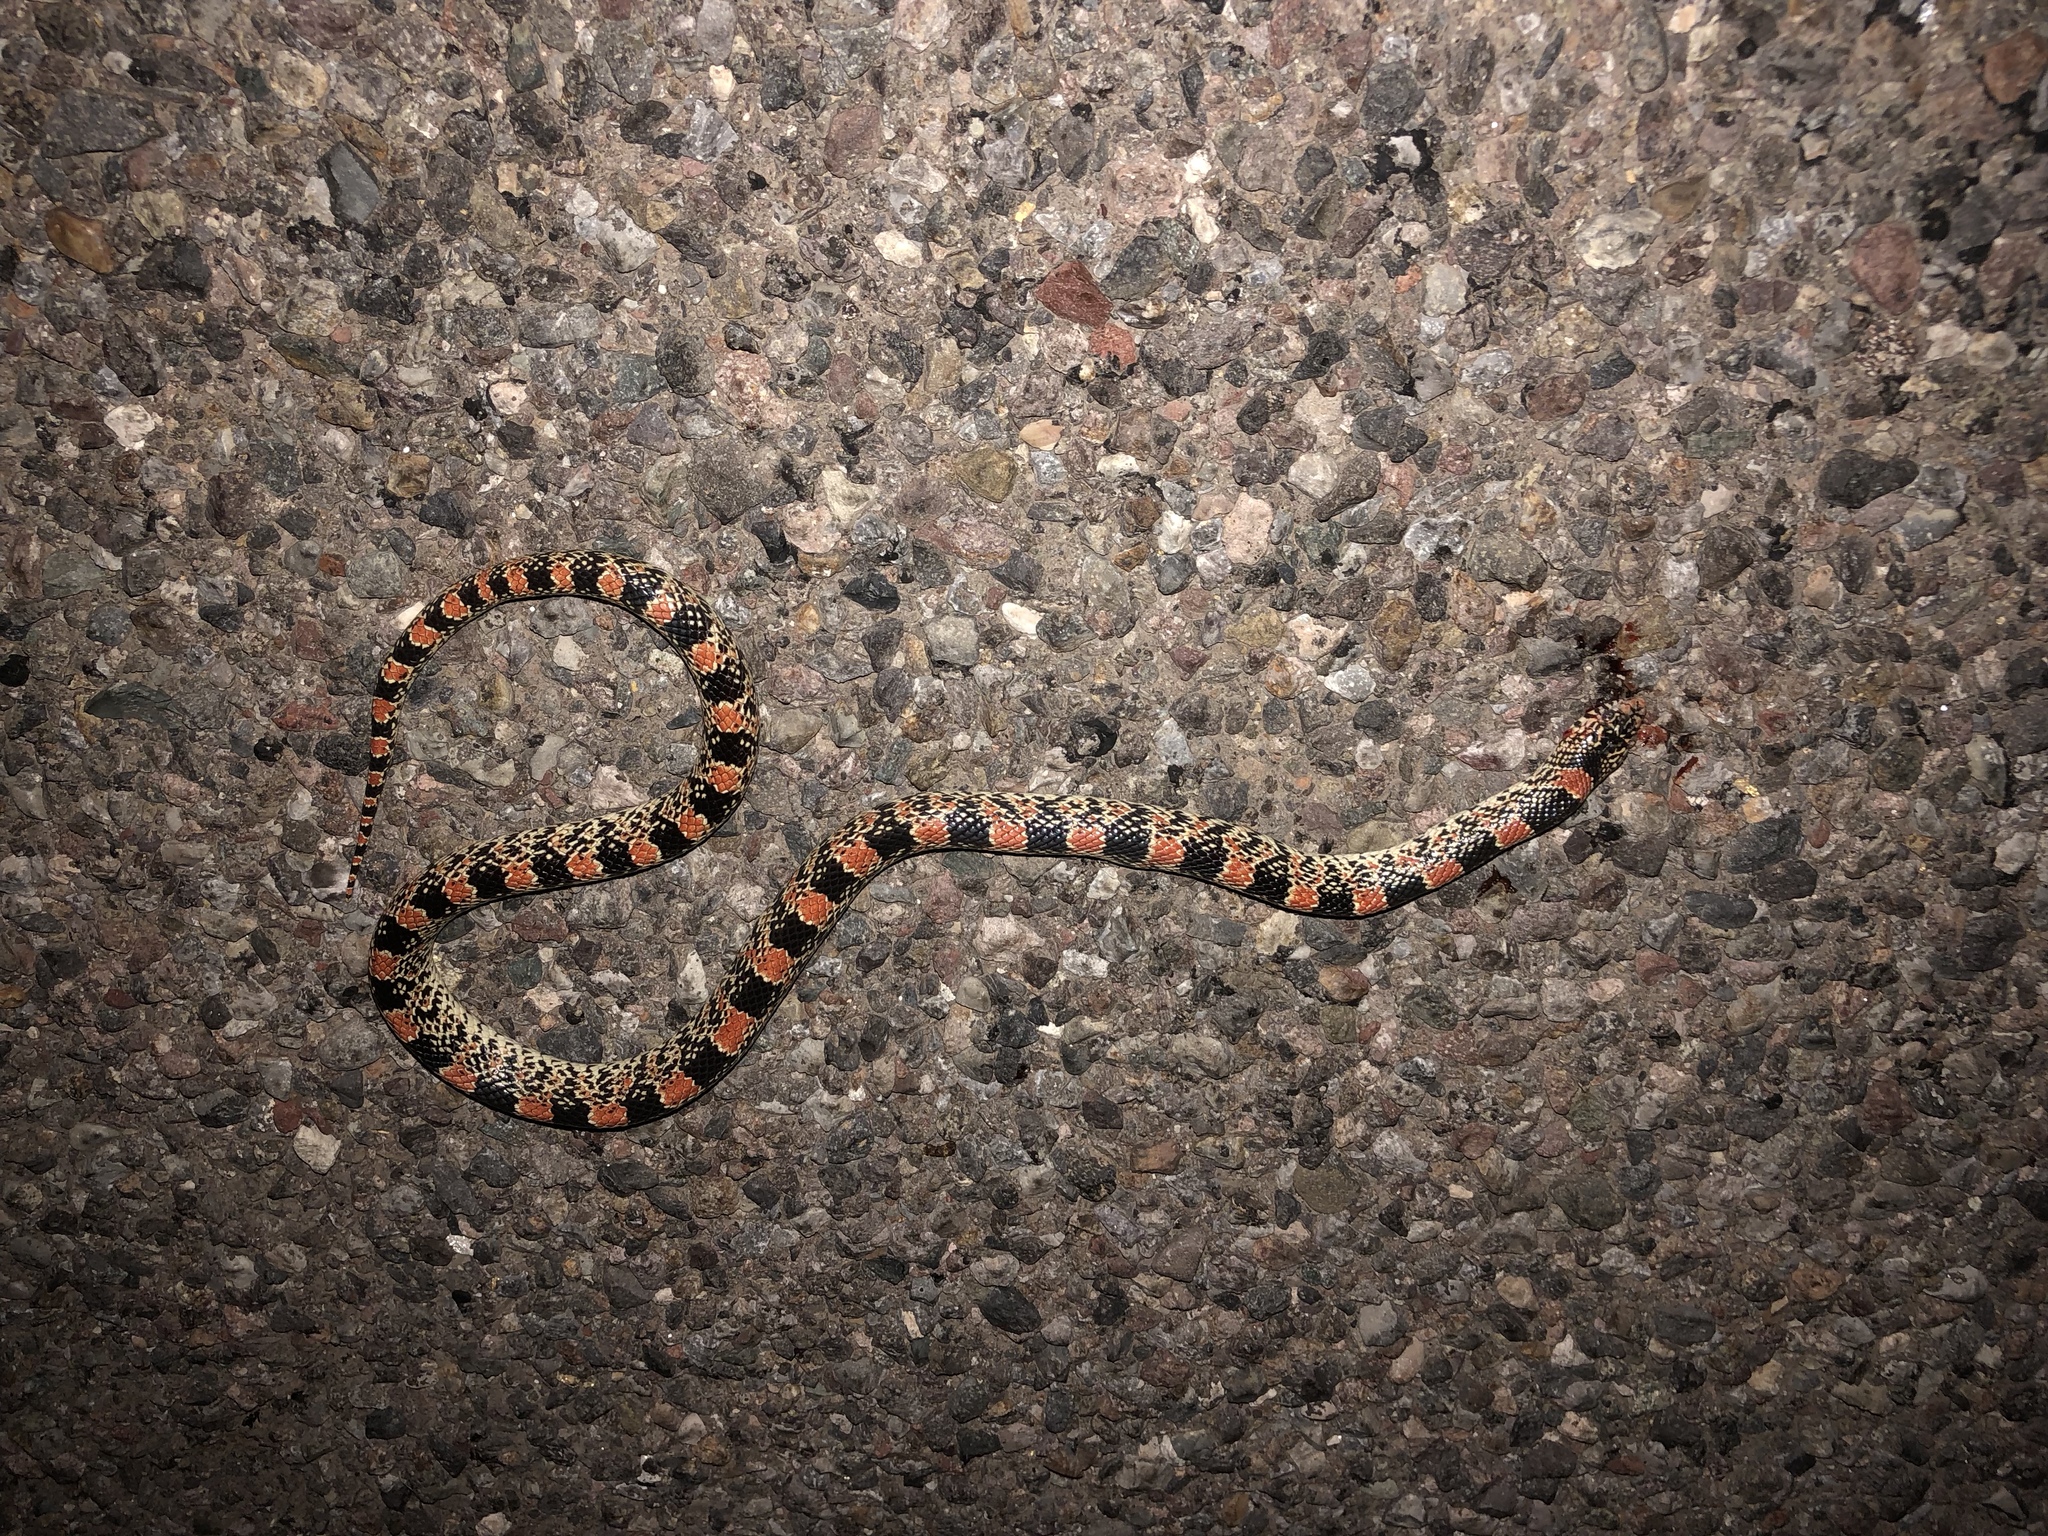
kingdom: Animalia
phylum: Chordata
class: Squamata
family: Colubridae
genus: Rhinocheilus
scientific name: Rhinocheilus lecontei
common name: Longnose snake
